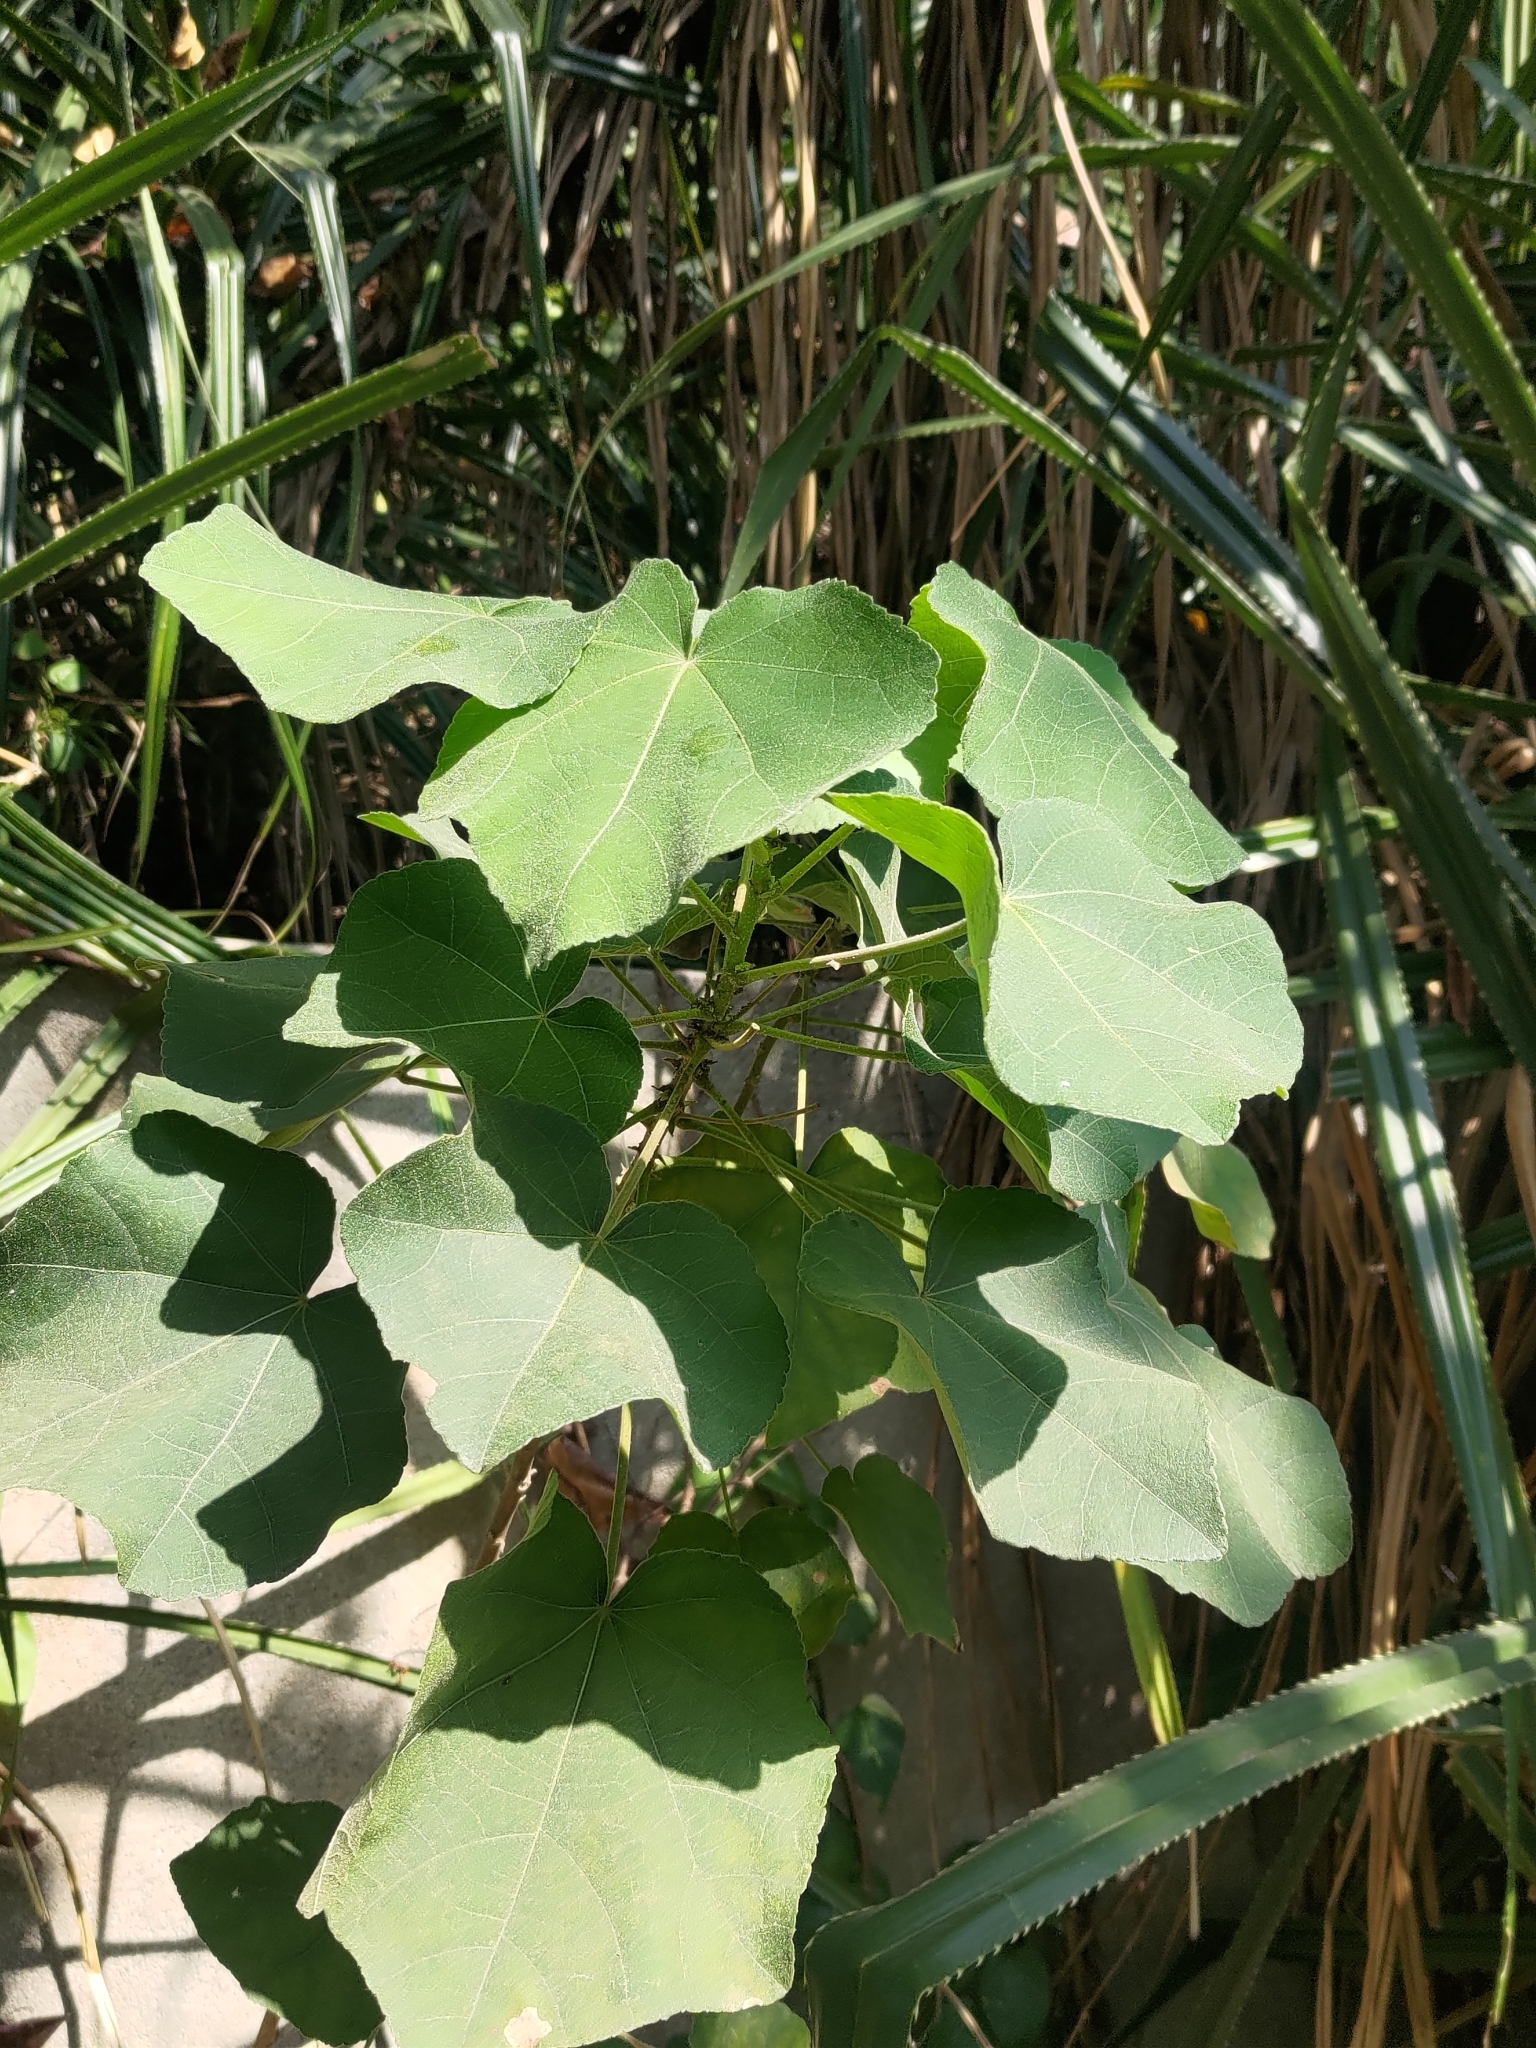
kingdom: Plantae
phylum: Tracheophyta
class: Magnoliopsida
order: Rosales
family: Moraceae
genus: Broussonetia
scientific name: Broussonetia papyrifera
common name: Paper mulberry
